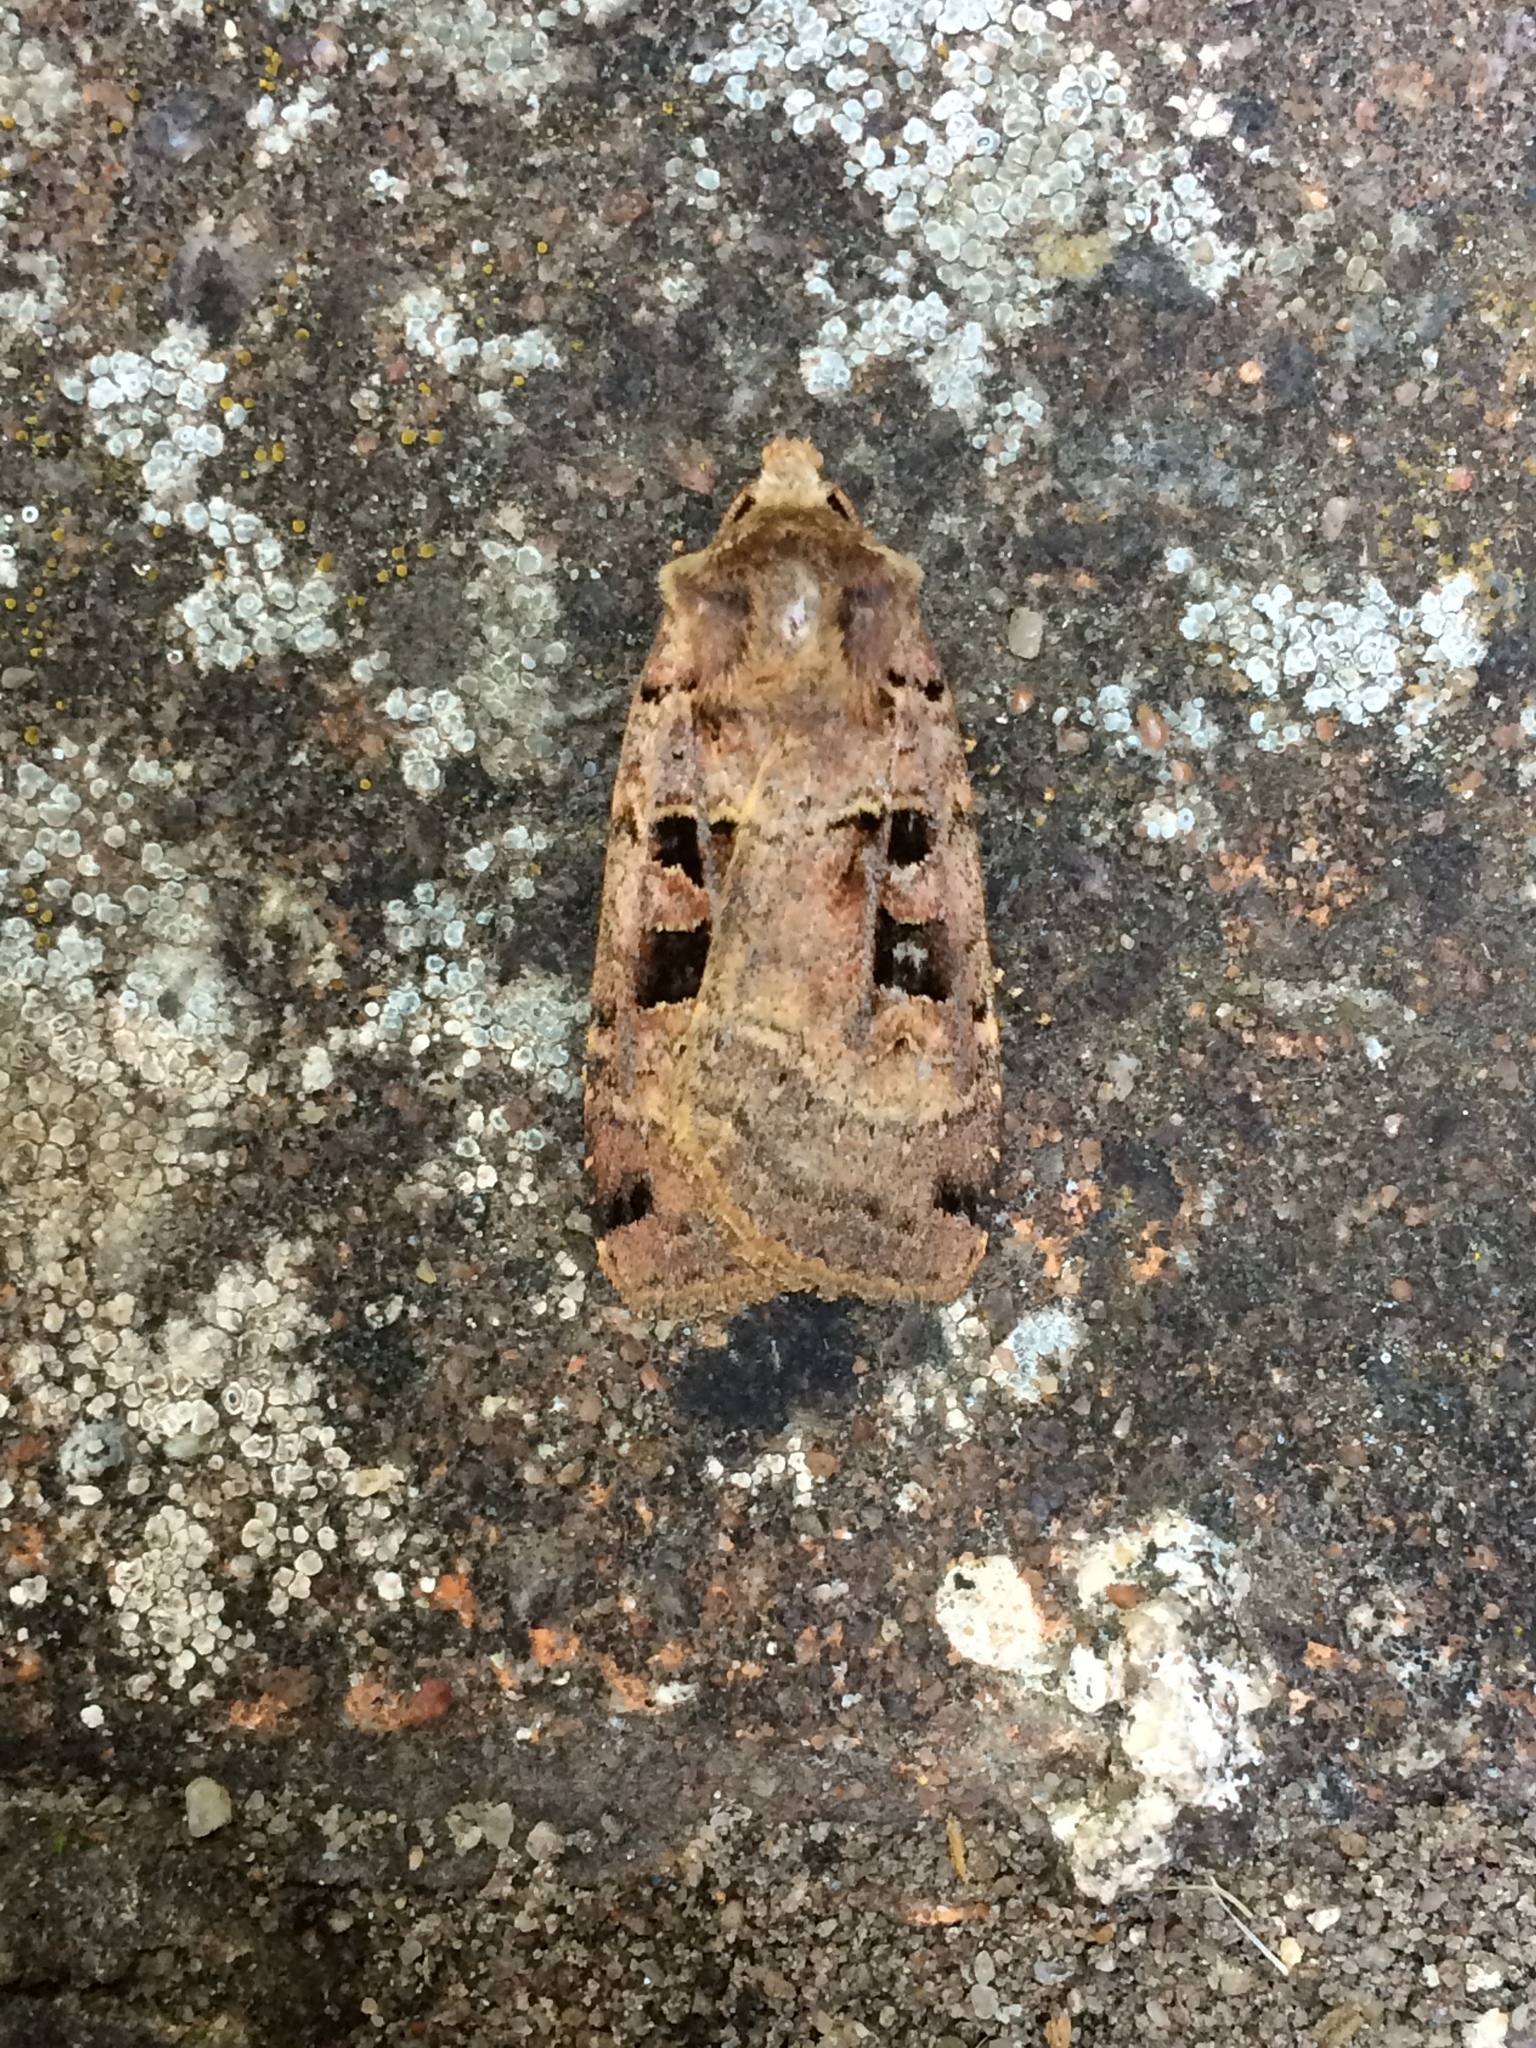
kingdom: Animalia
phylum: Arthropoda
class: Insecta
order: Lepidoptera
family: Noctuidae
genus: Xestia
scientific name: Xestia triangulum
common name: Double square-spot
